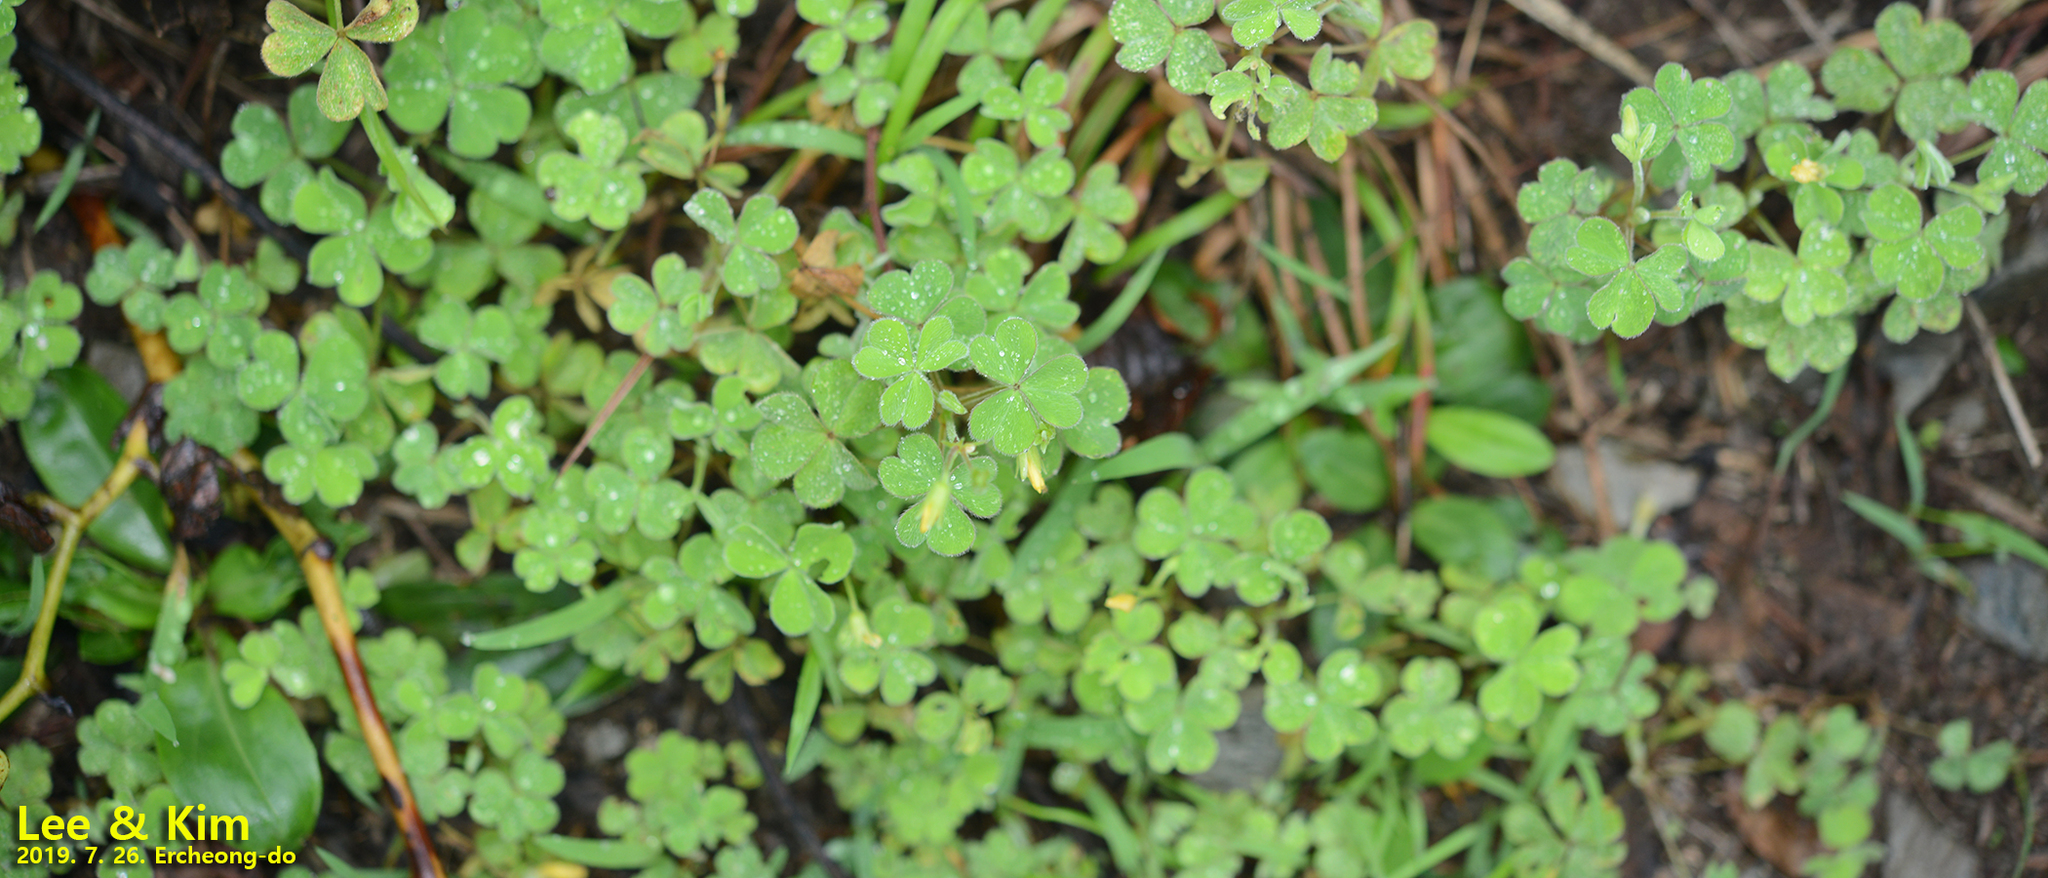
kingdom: Plantae
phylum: Tracheophyta
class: Magnoliopsida
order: Oxalidales
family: Oxalidaceae
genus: Oxalis
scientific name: Oxalis corniculata
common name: Procumbent yellow-sorrel
